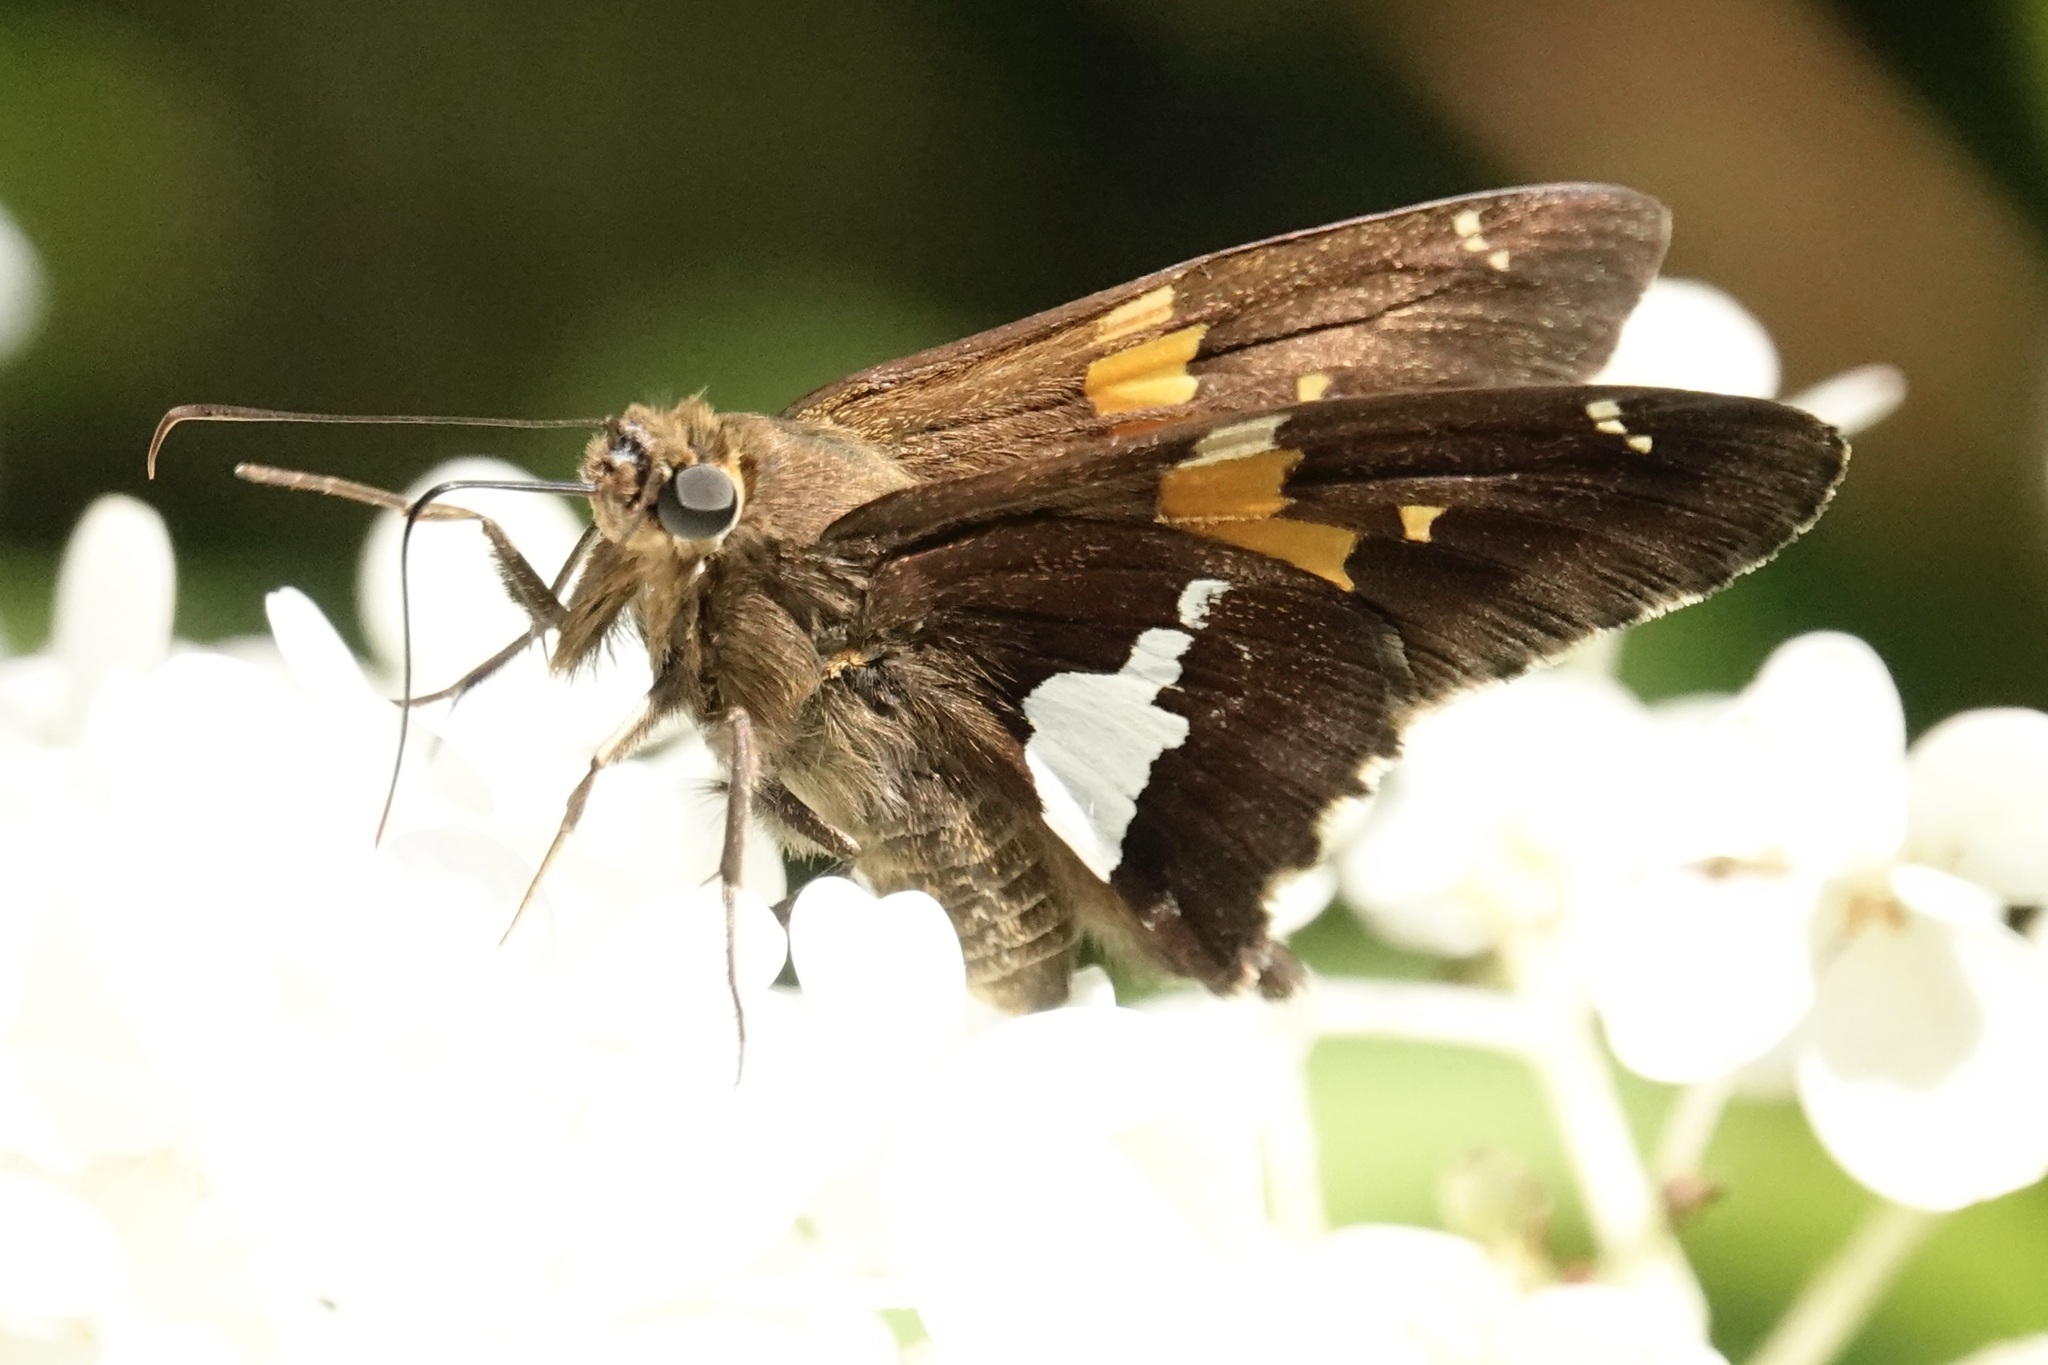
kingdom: Animalia
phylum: Arthropoda
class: Insecta
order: Lepidoptera
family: Hesperiidae
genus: Epargyreus
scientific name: Epargyreus clarus
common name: Silver-spotted skipper
